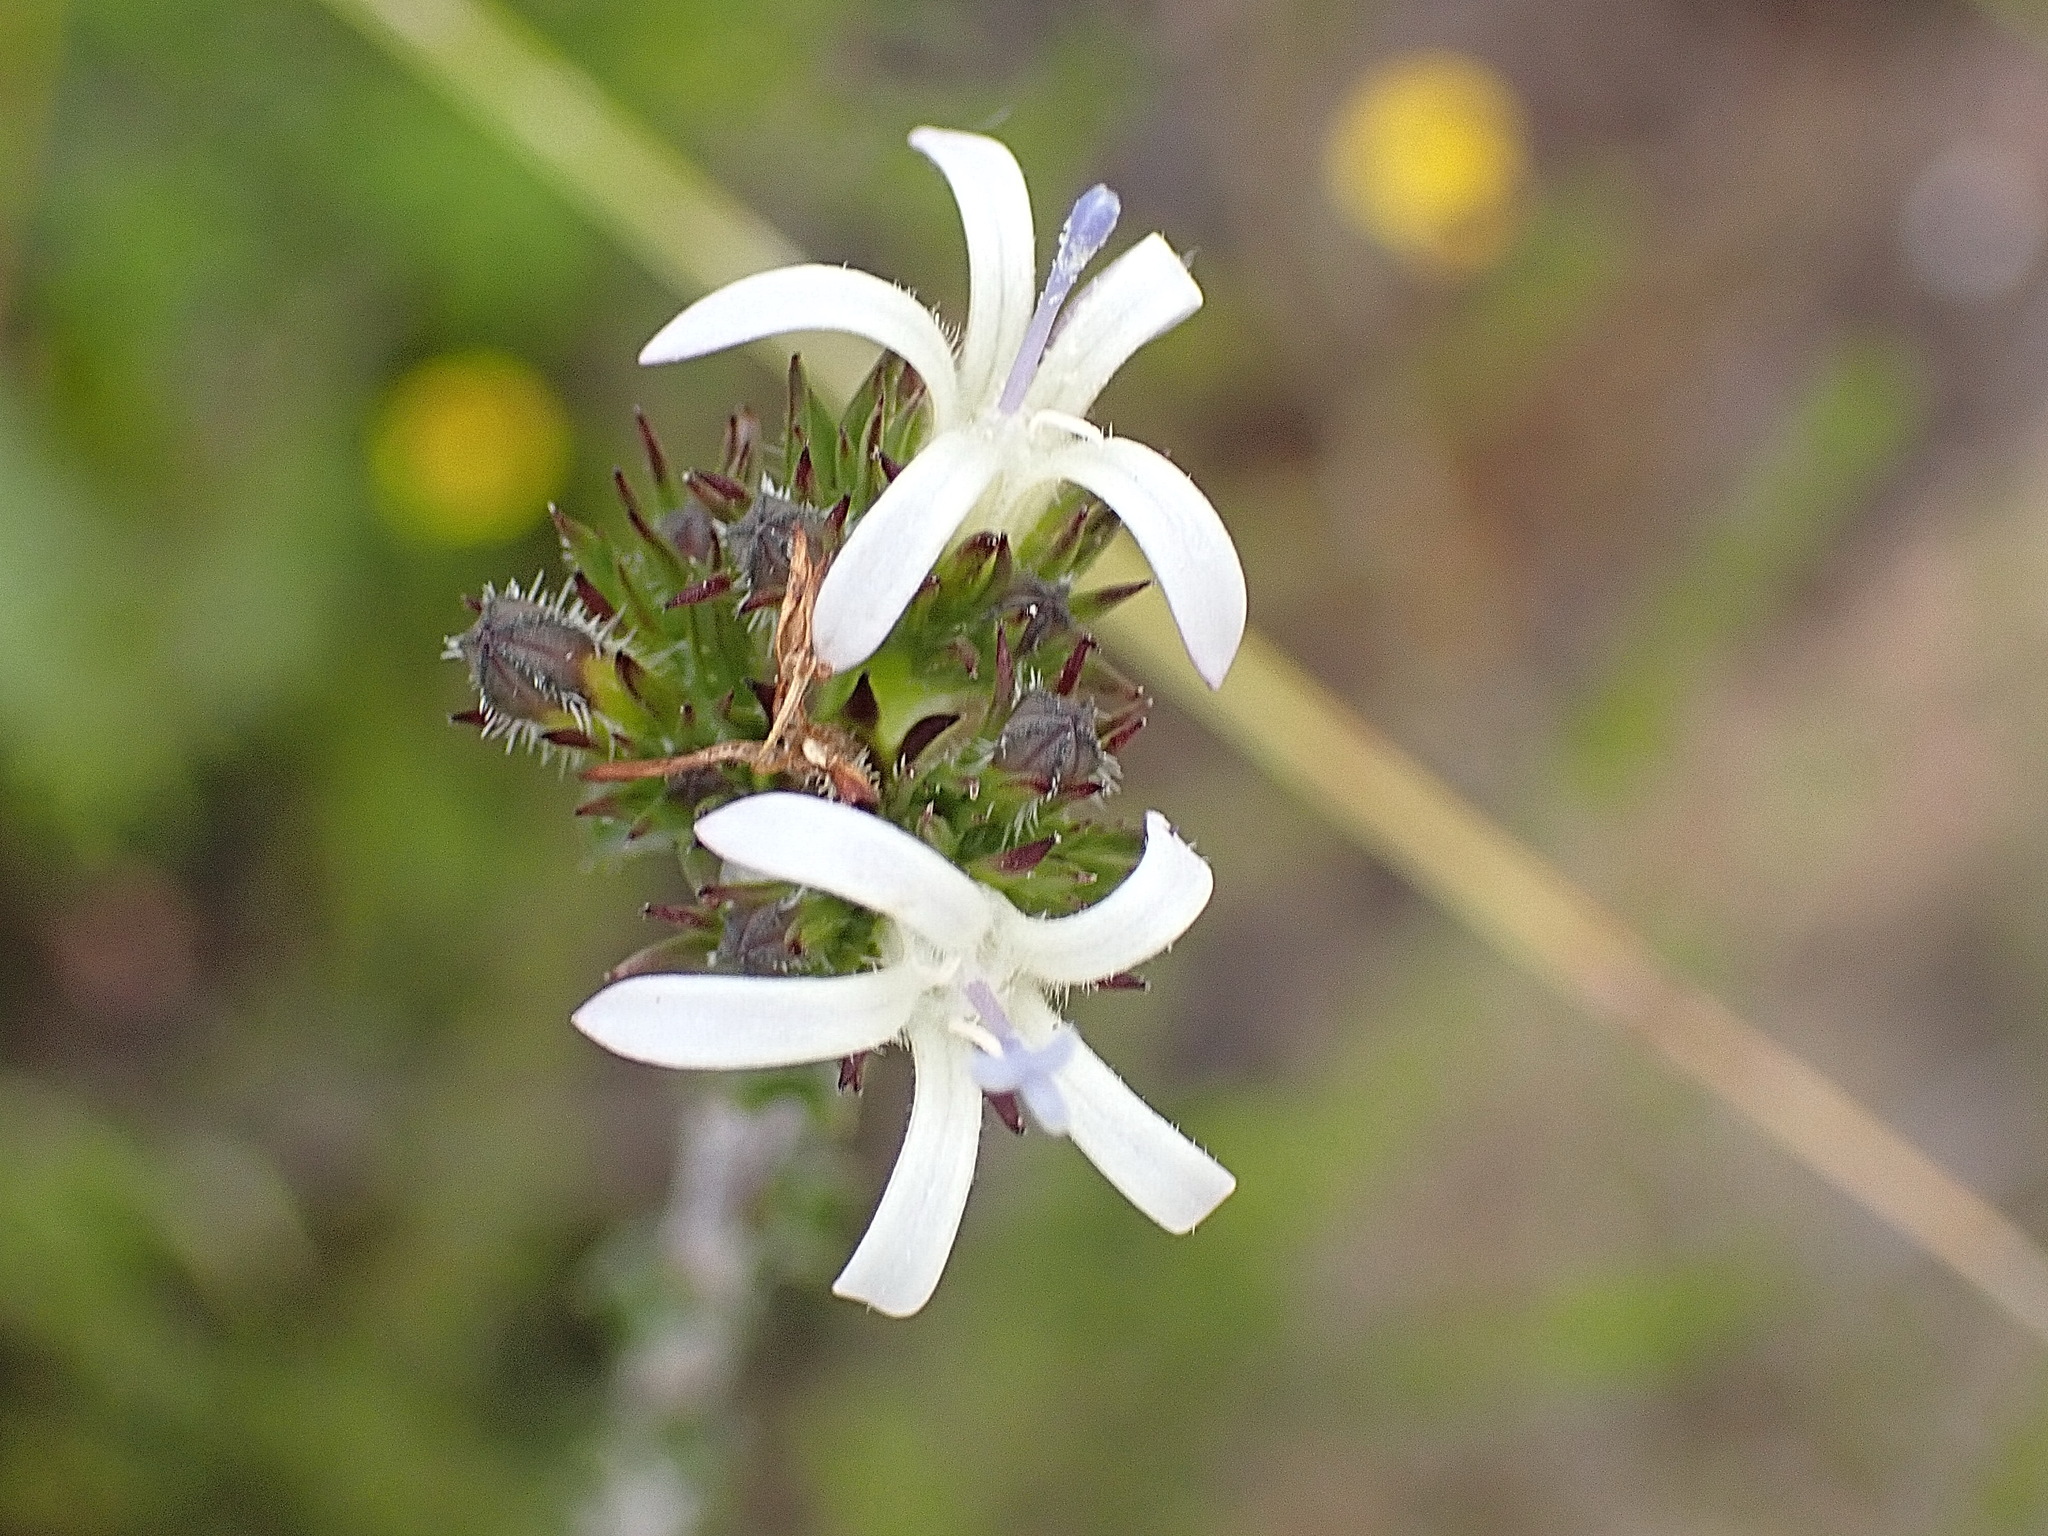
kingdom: Plantae
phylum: Tracheophyta
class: Magnoliopsida
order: Asterales
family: Campanulaceae
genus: Wahlenbergia
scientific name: Wahlenbergia desmantha
